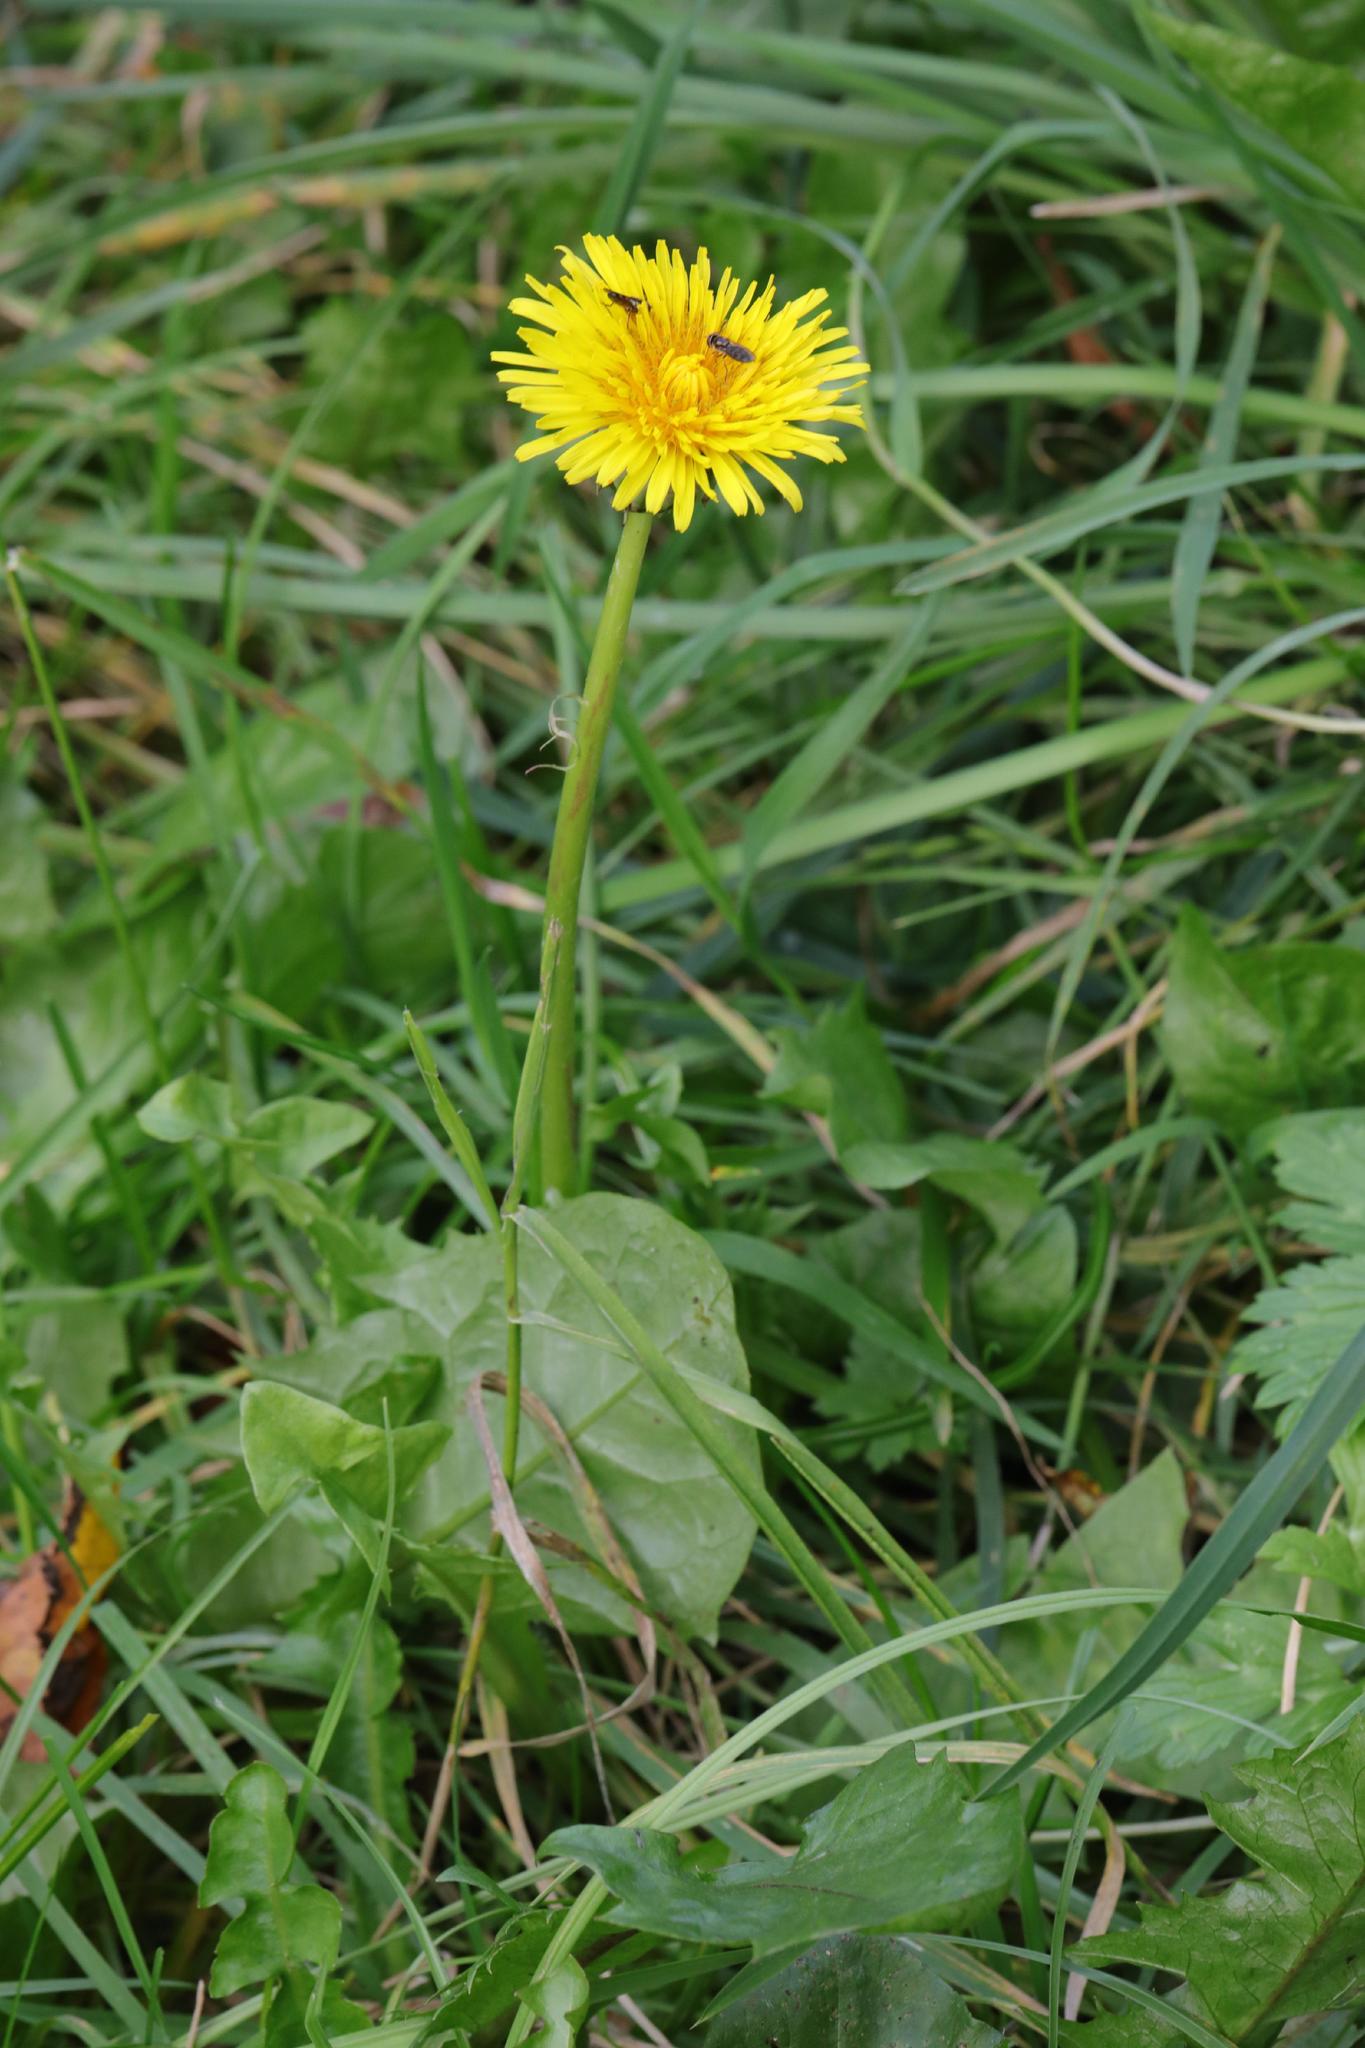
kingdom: Plantae
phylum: Tracheophyta
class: Magnoliopsida
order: Asterales
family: Asteraceae
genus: Taraxacum
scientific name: Taraxacum officinale
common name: Common dandelion
